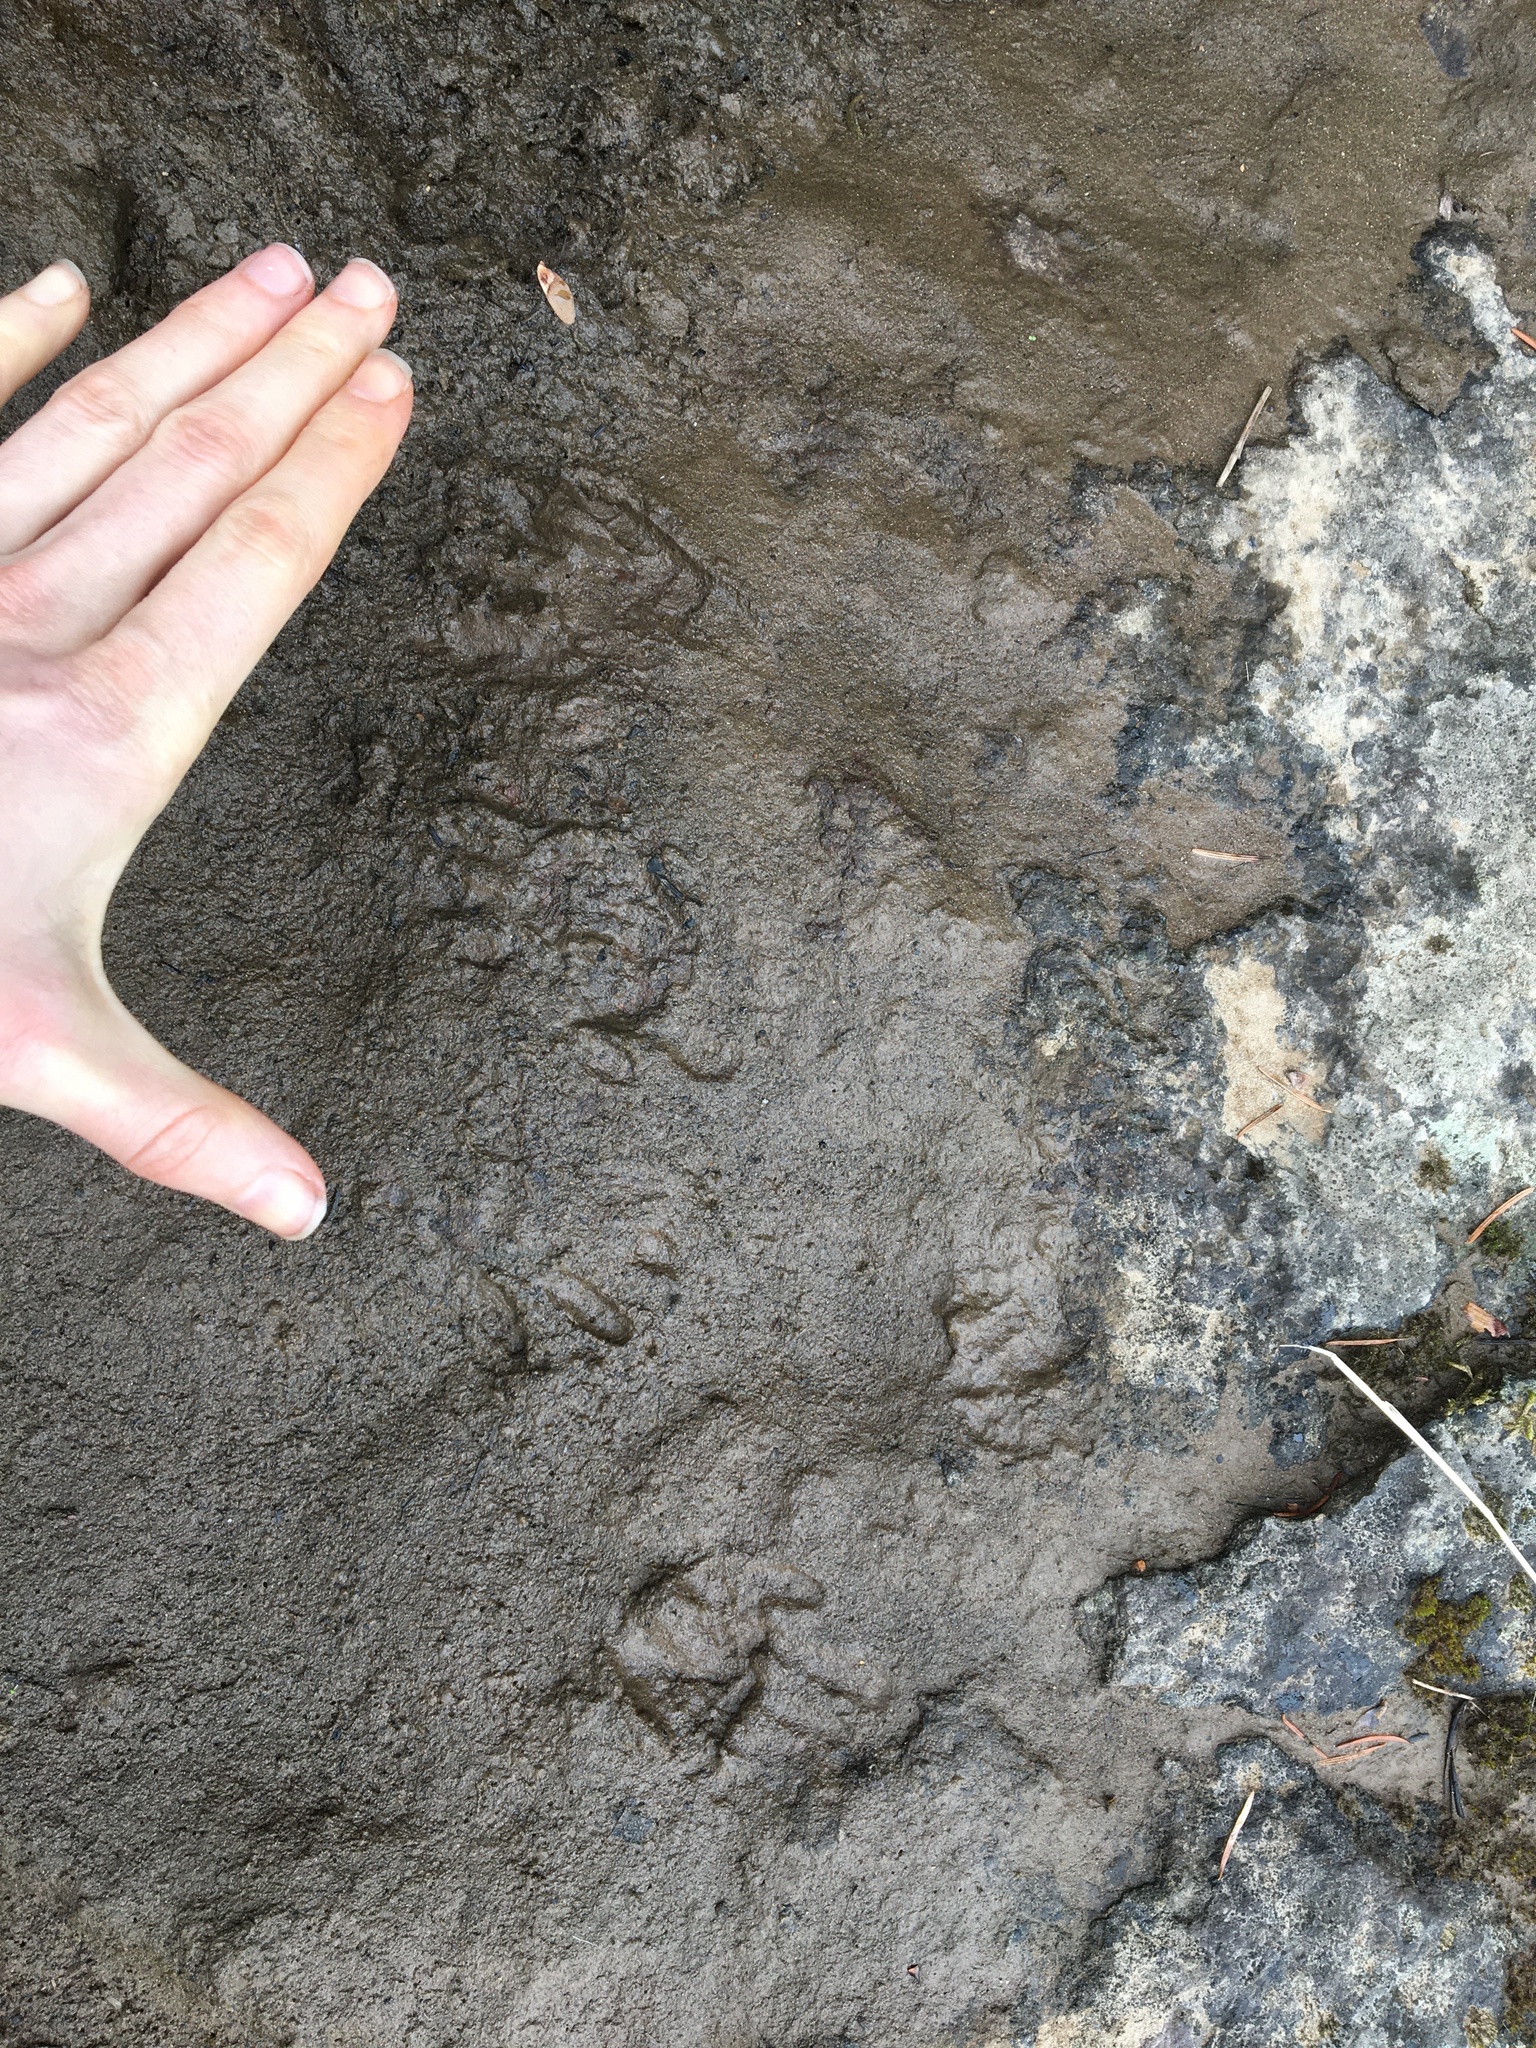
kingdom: Animalia
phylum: Chordata
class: Mammalia
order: Carnivora
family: Procyonidae
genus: Procyon
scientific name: Procyon lotor
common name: Raccoon
